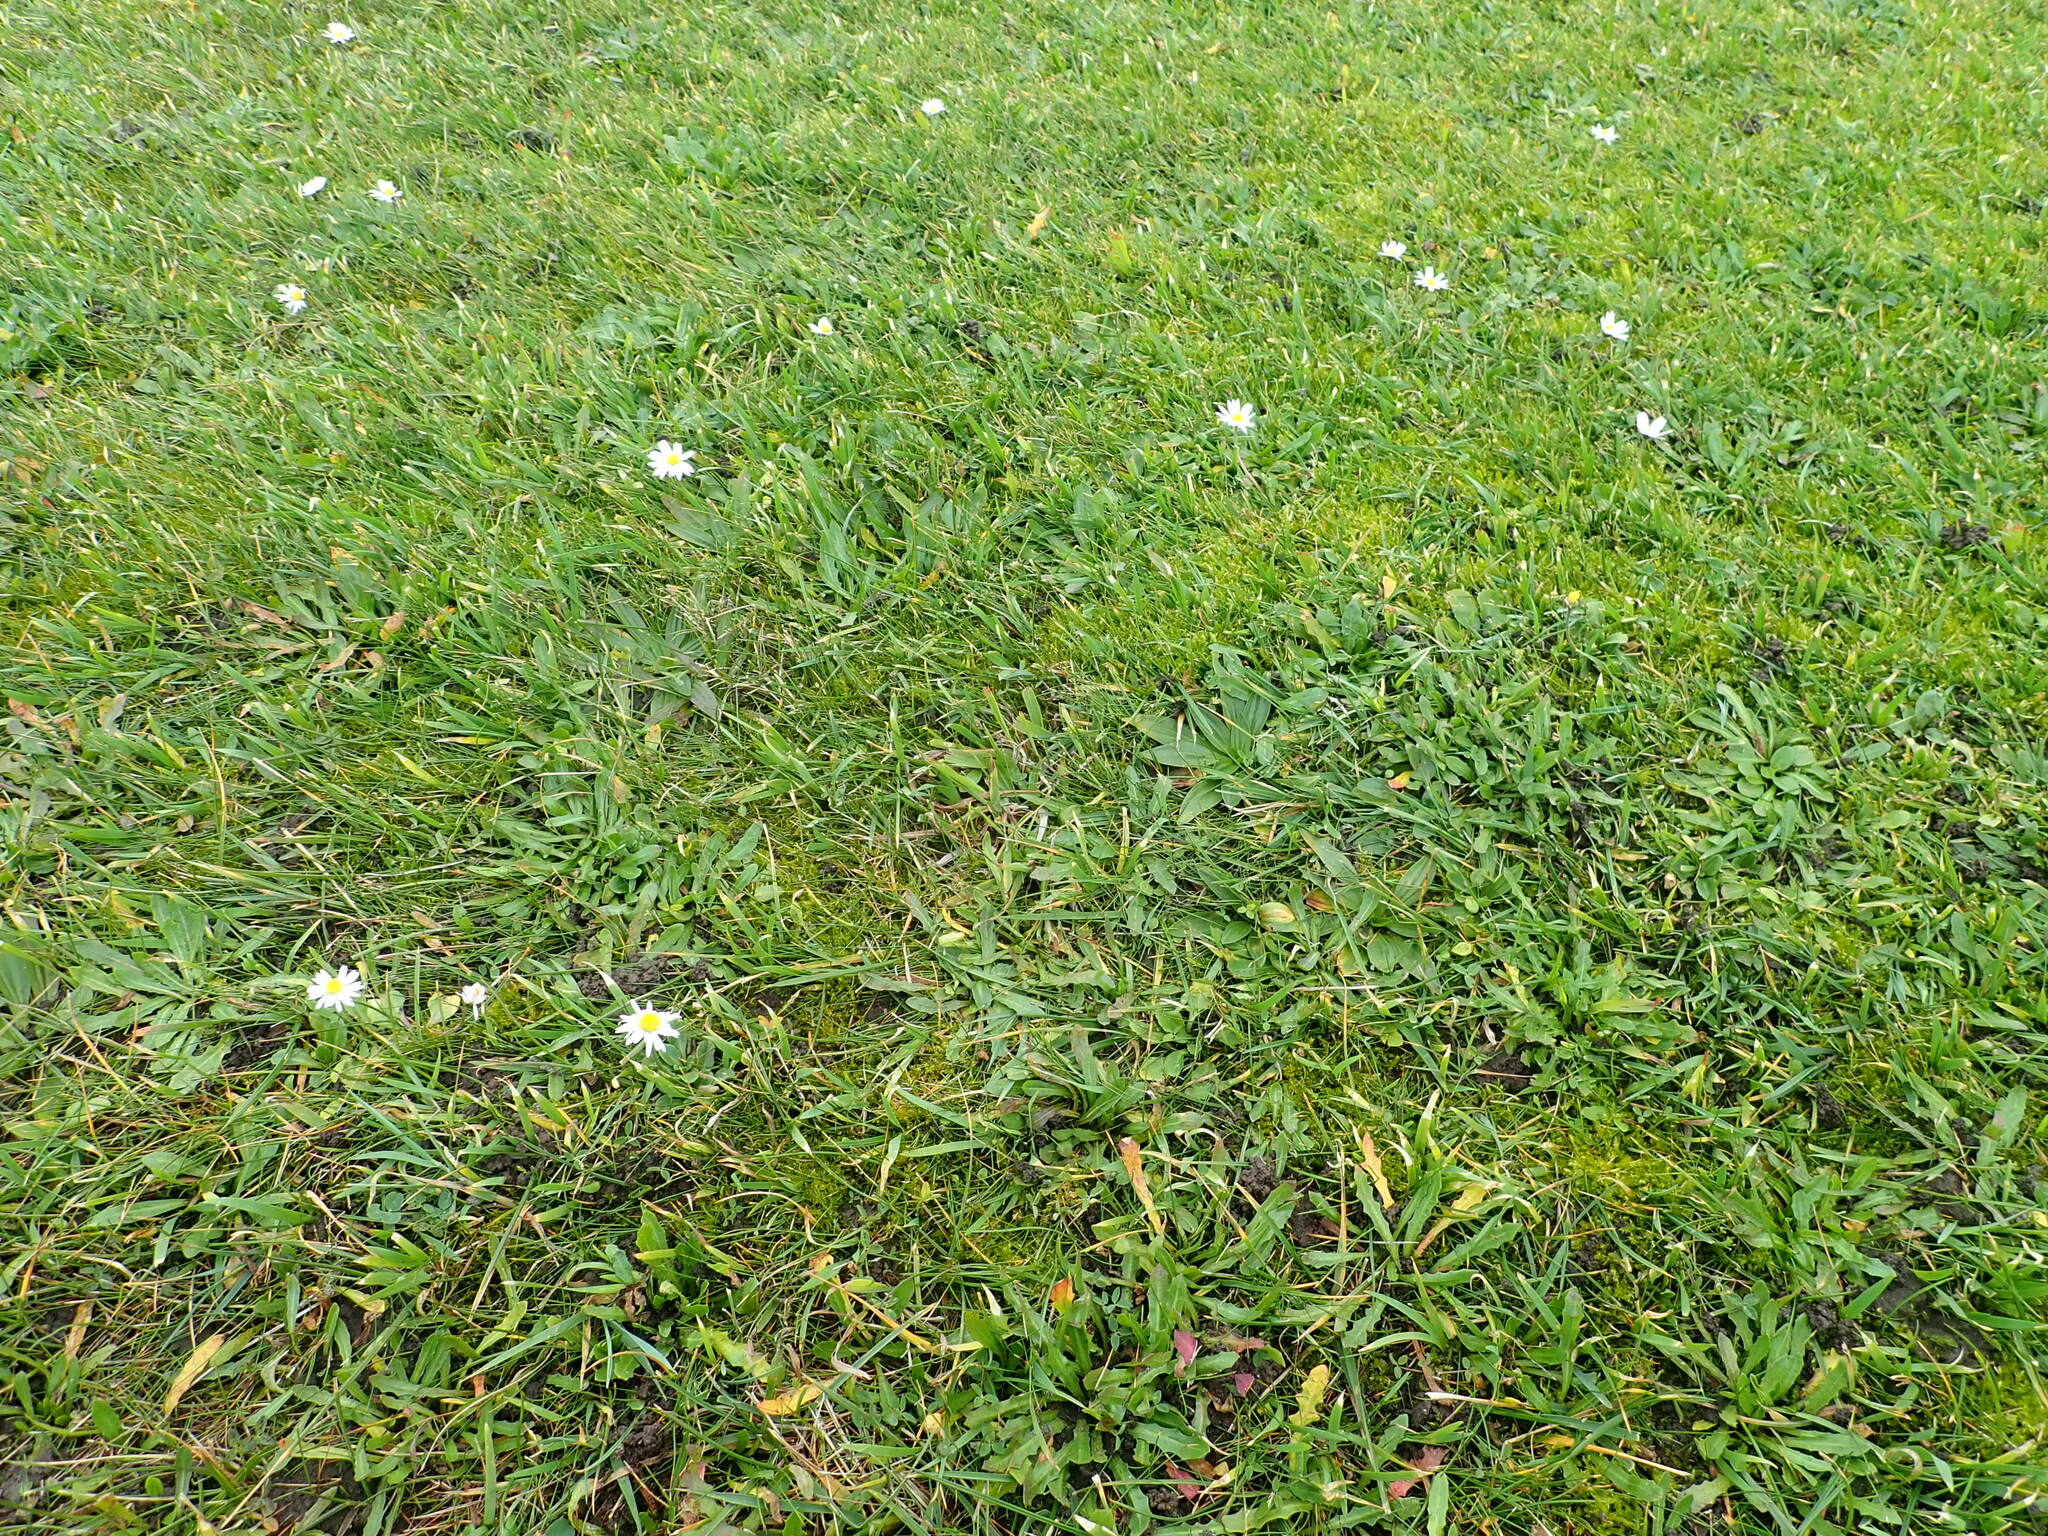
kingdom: Plantae
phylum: Tracheophyta
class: Magnoliopsida
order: Asterales
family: Asteraceae
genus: Bellis
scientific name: Bellis perennis
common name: Lawndaisy
